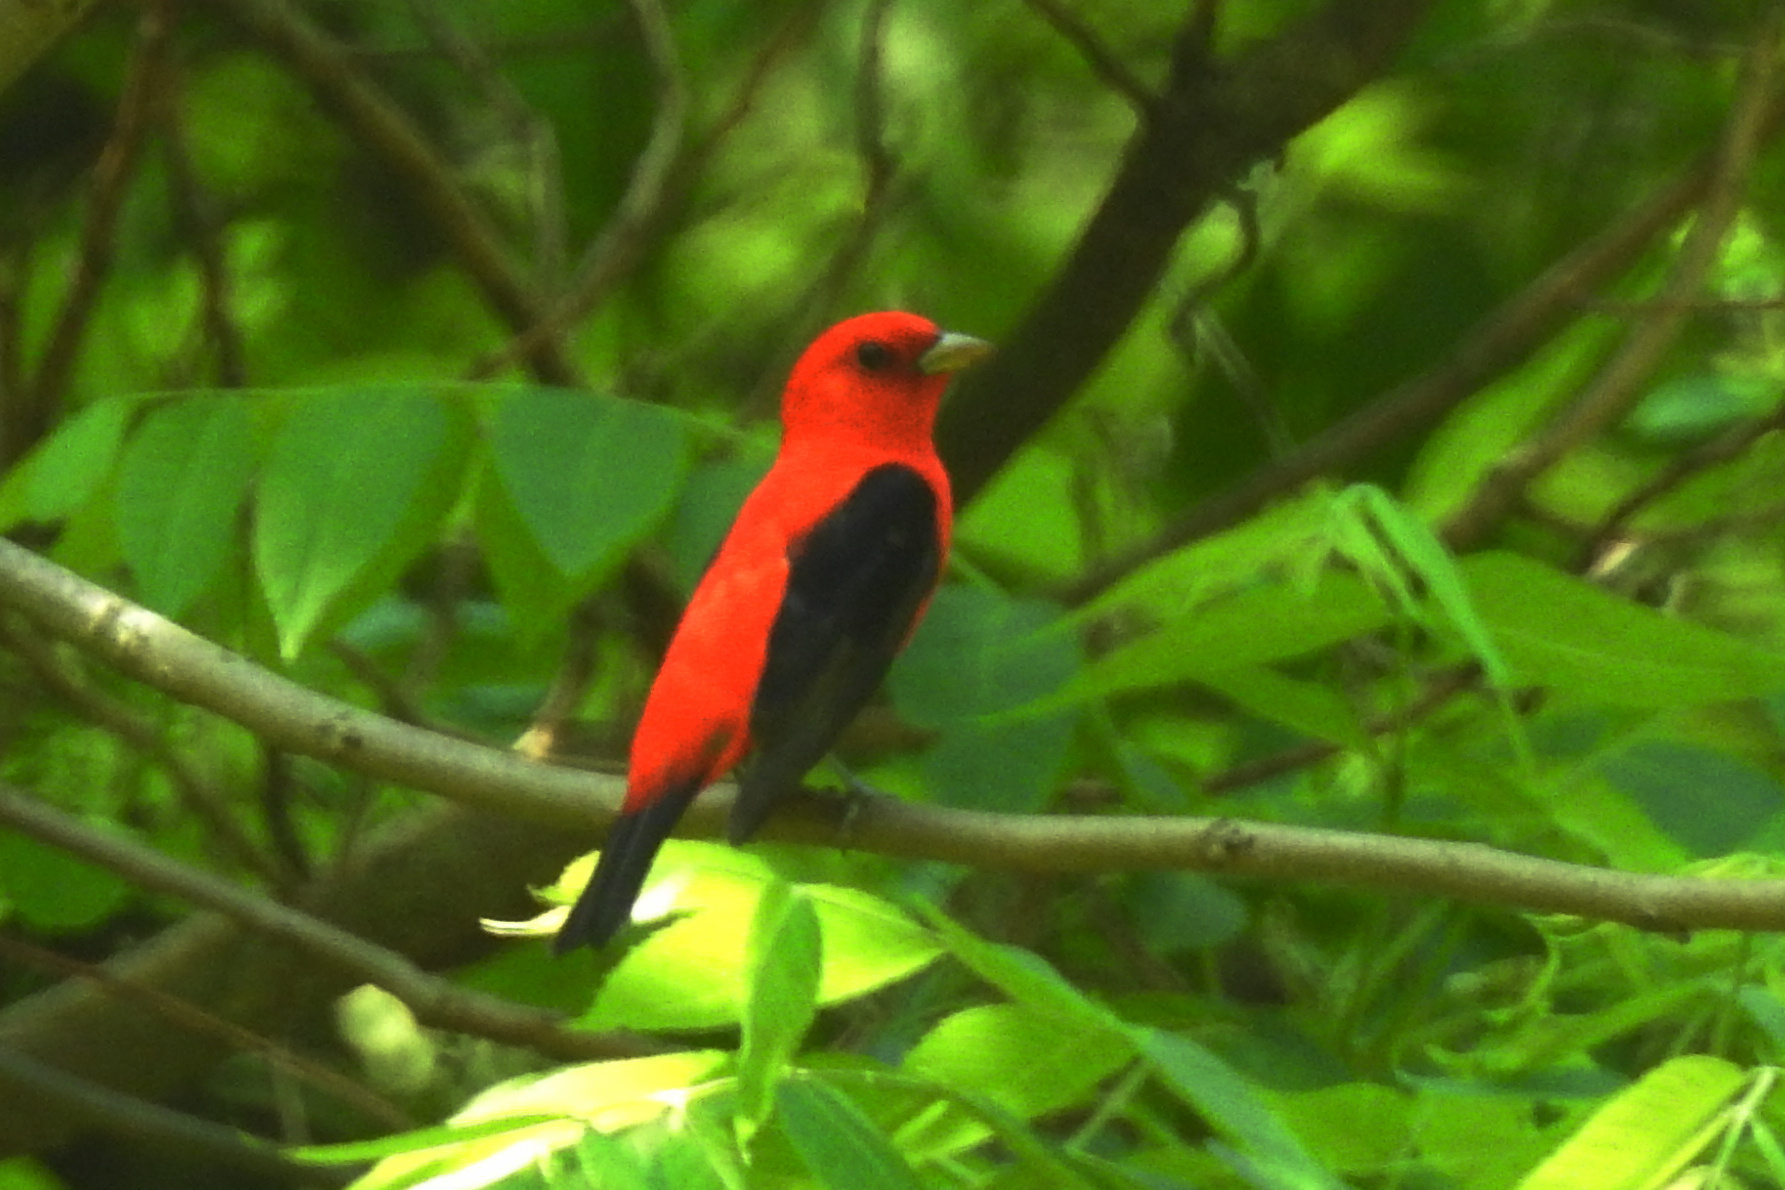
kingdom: Animalia
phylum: Chordata
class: Aves
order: Passeriformes
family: Cardinalidae
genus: Piranga
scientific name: Piranga olivacea
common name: Scarlet tanager
